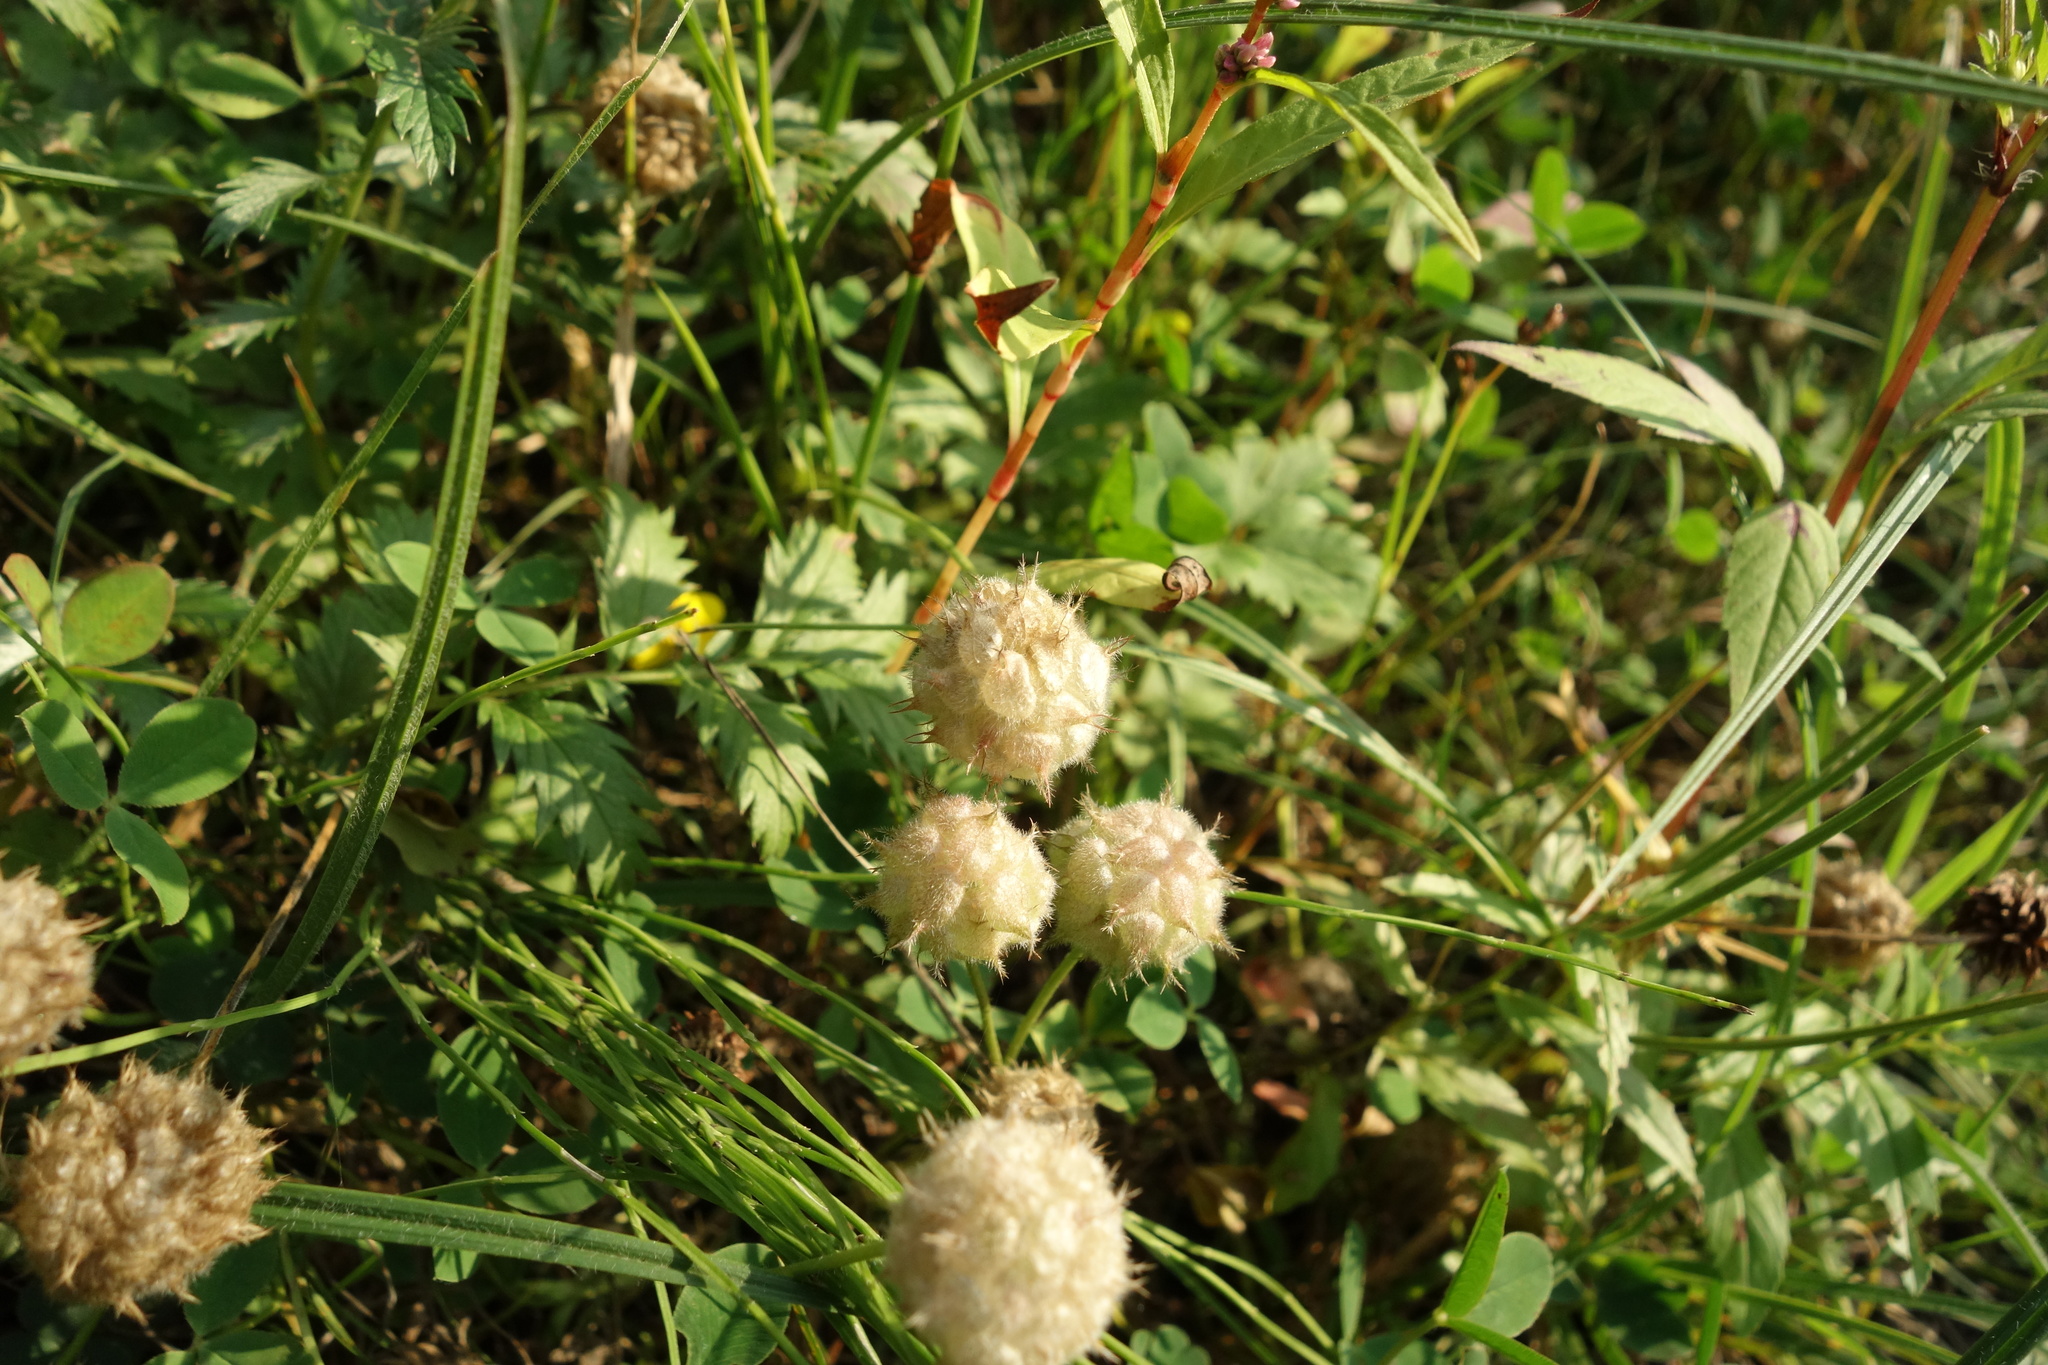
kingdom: Plantae
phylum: Tracheophyta
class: Magnoliopsida
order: Fabales
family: Fabaceae
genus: Trifolium
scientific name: Trifolium fragiferum
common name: Strawberry clover
